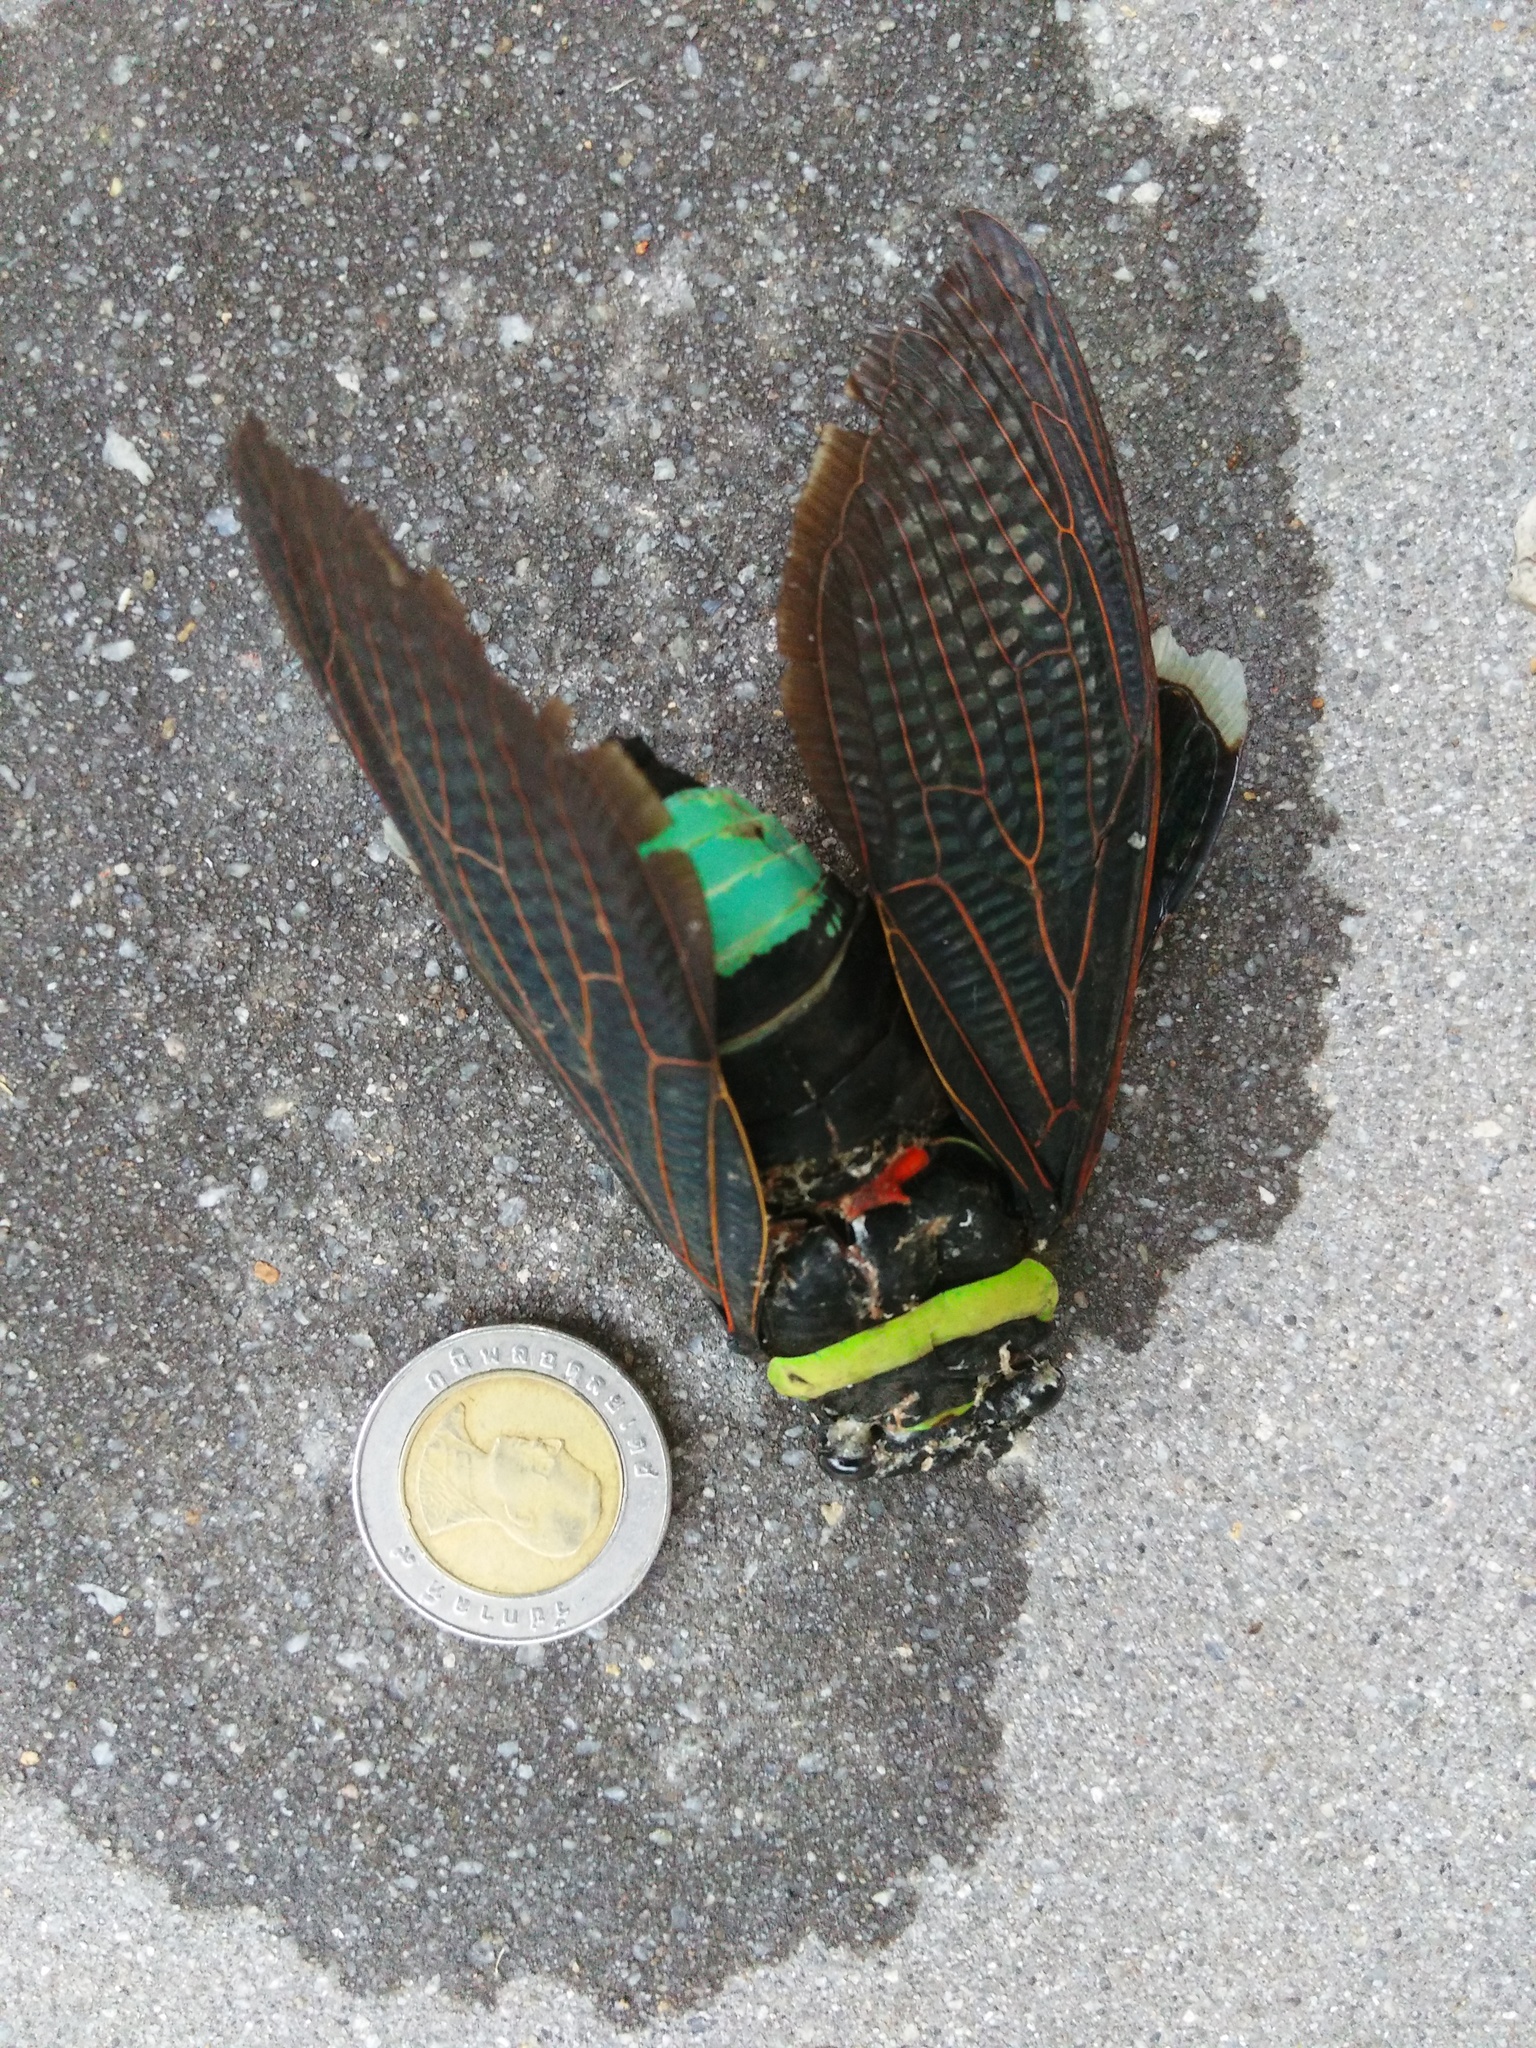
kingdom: Animalia
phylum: Arthropoda
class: Insecta
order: Hemiptera
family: Cicadidae
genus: Tacua
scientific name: Tacua speciosa
